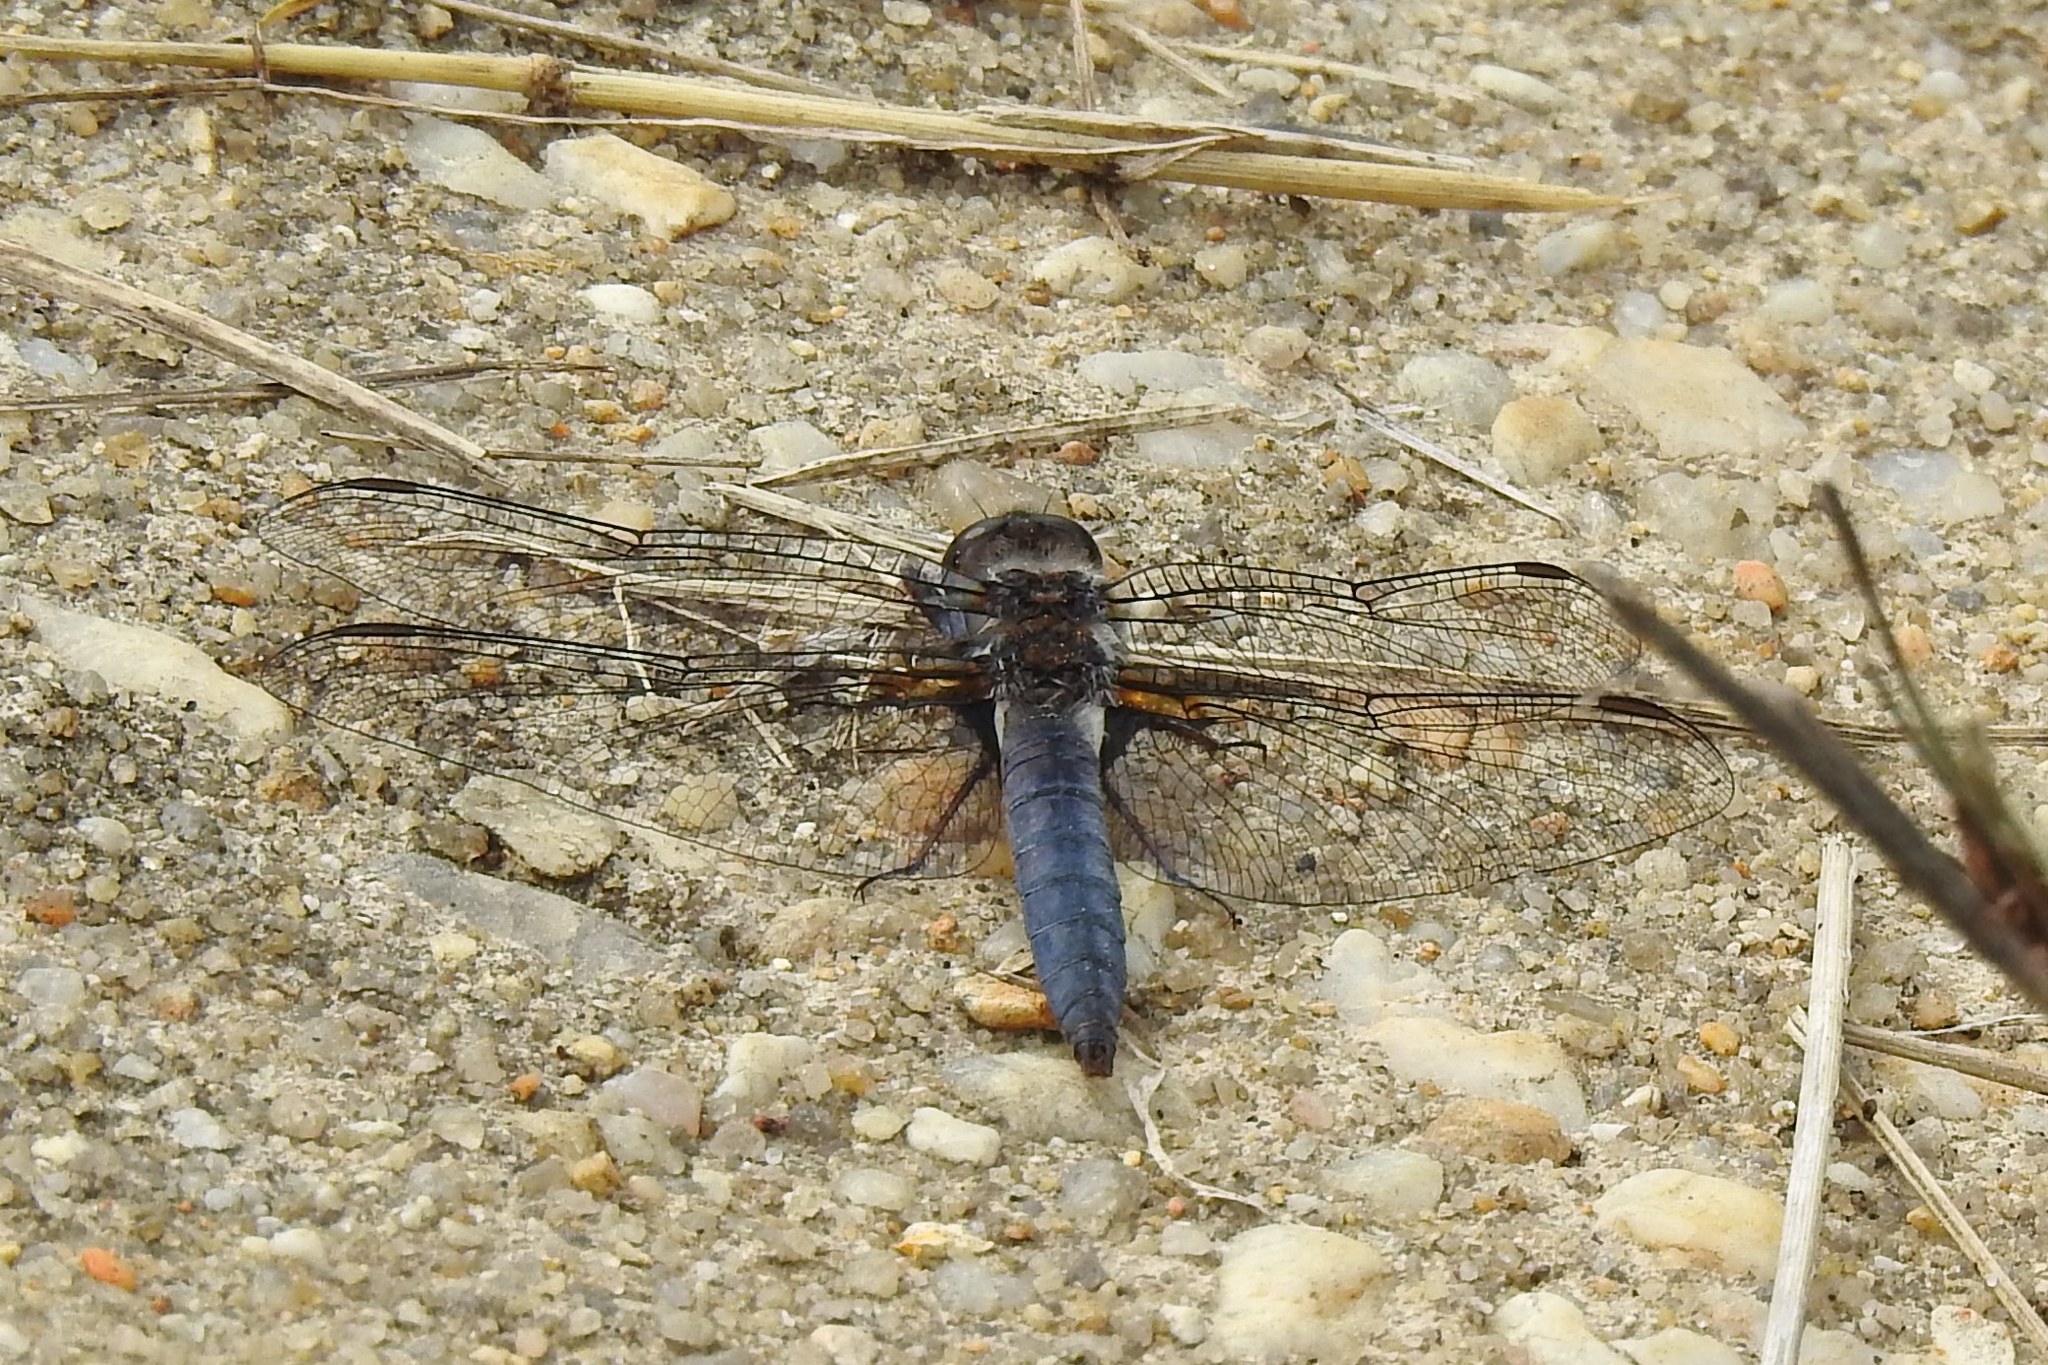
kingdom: Animalia
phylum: Arthropoda
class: Insecta
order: Odonata
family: Libellulidae
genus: Ladona
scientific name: Ladona deplanata
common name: Blue corporal
